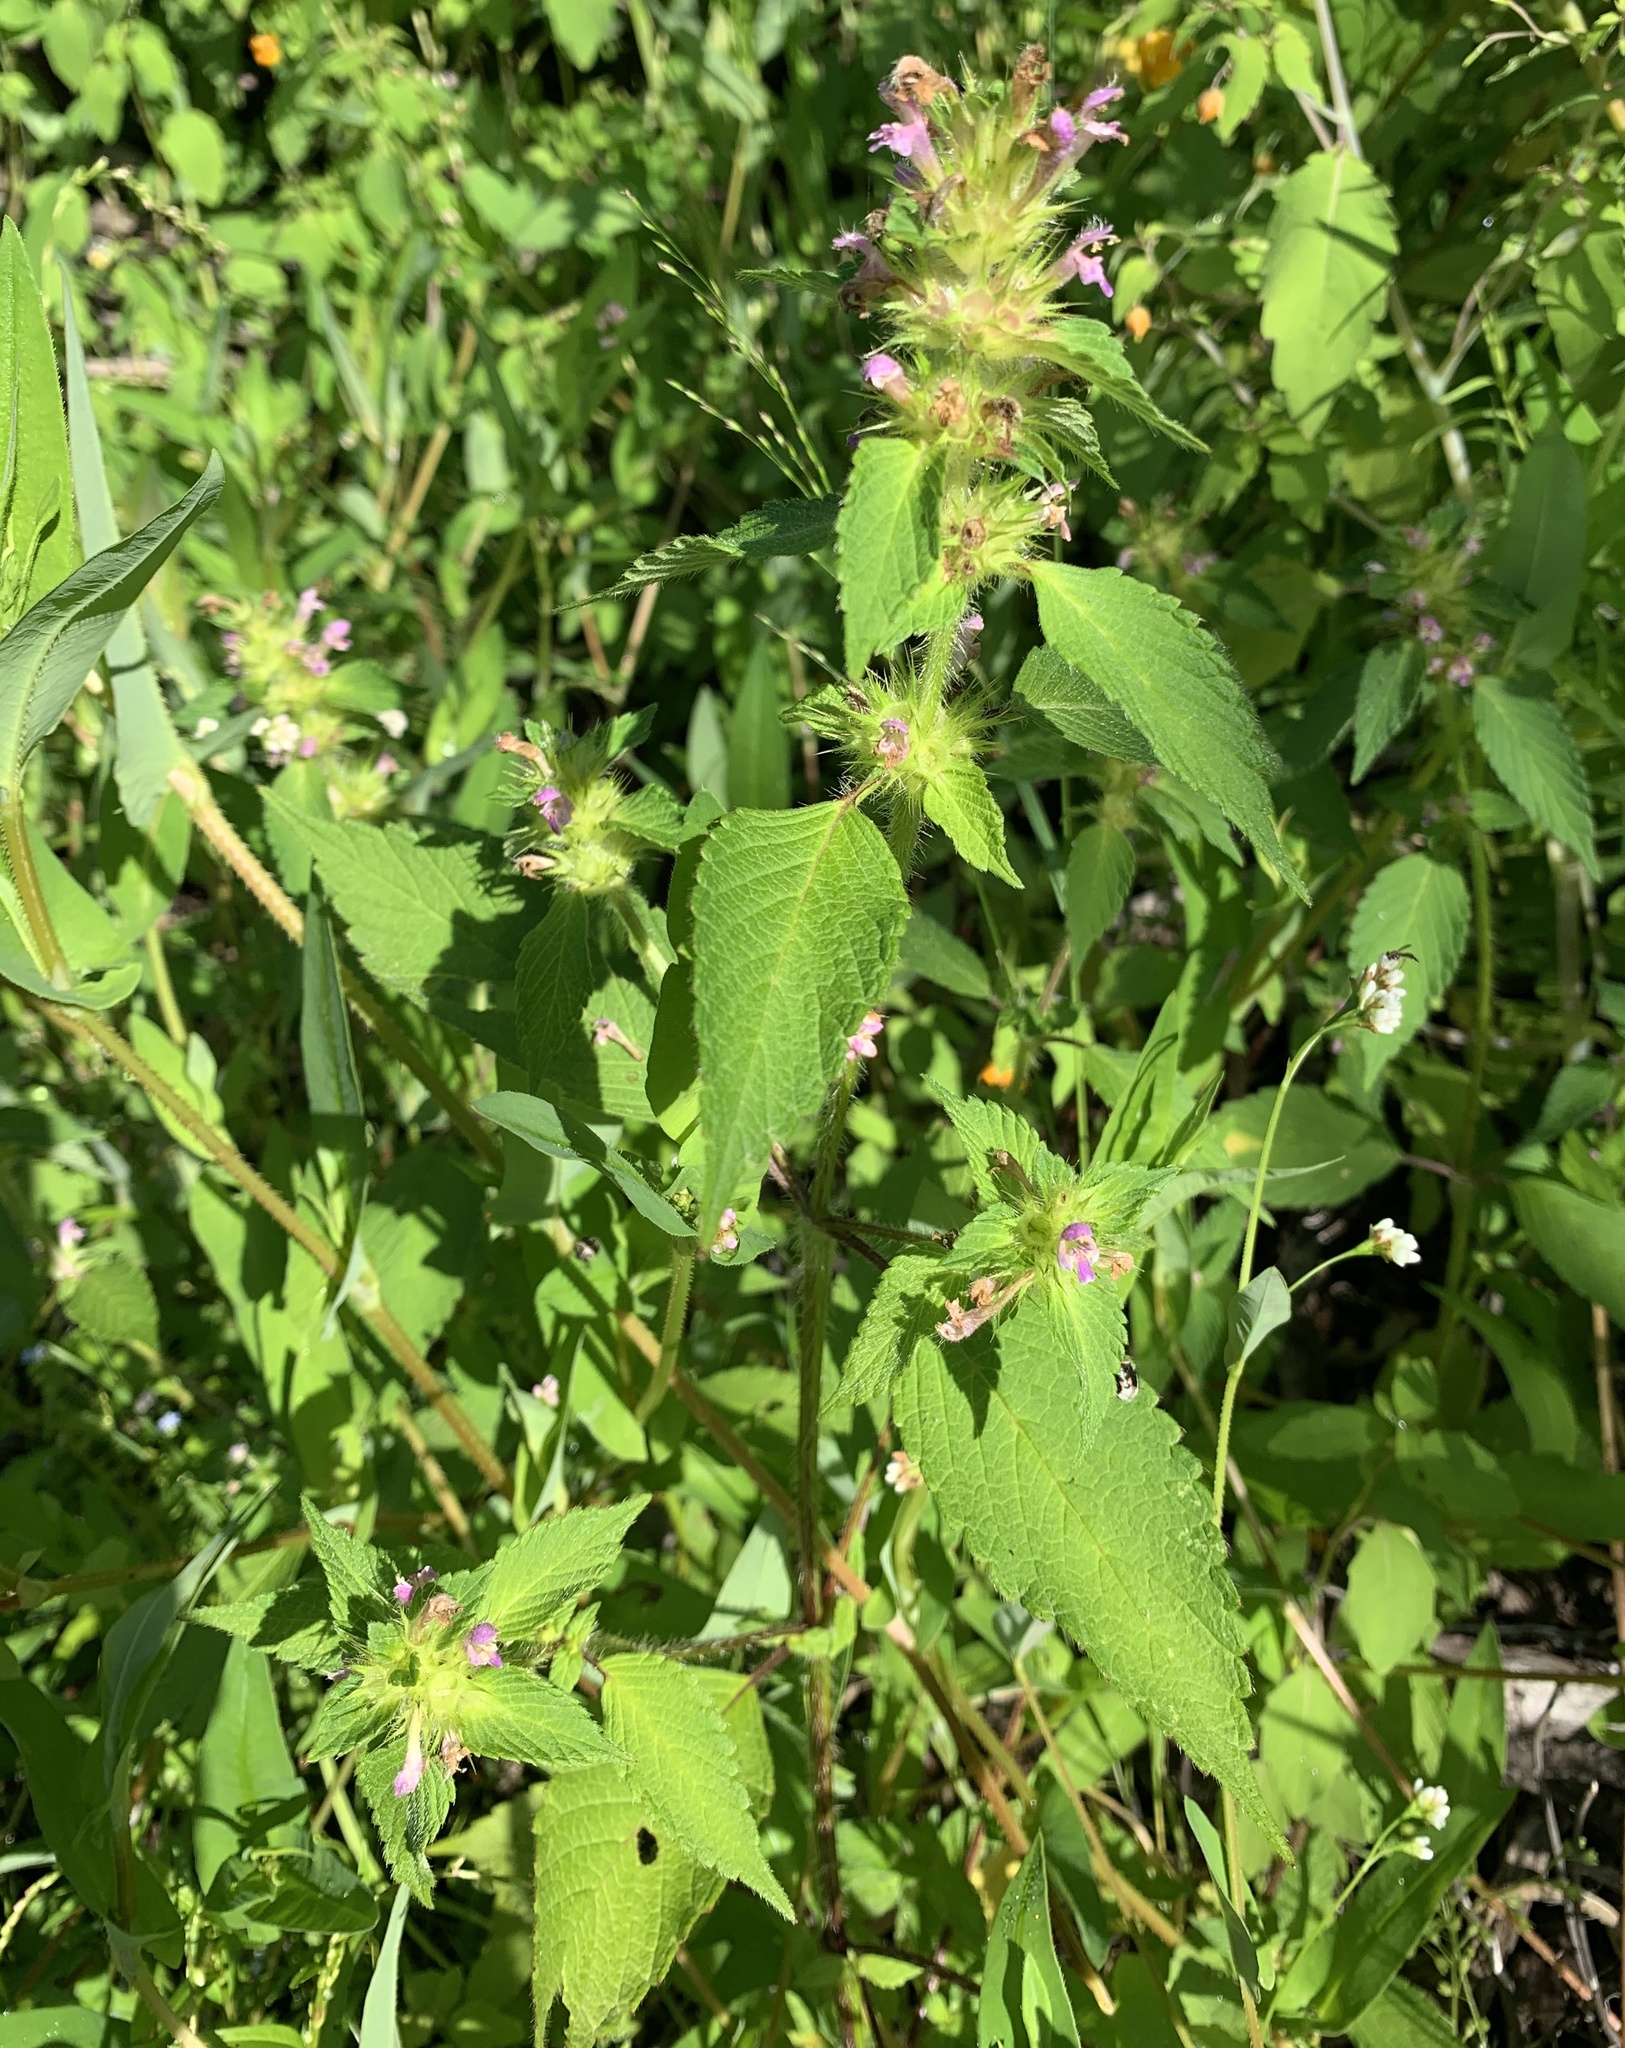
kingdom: Plantae
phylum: Tracheophyta
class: Magnoliopsida
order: Lamiales
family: Lamiaceae
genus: Galeopsis
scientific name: Galeopsis bifida
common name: Bifid hemp-nettle
